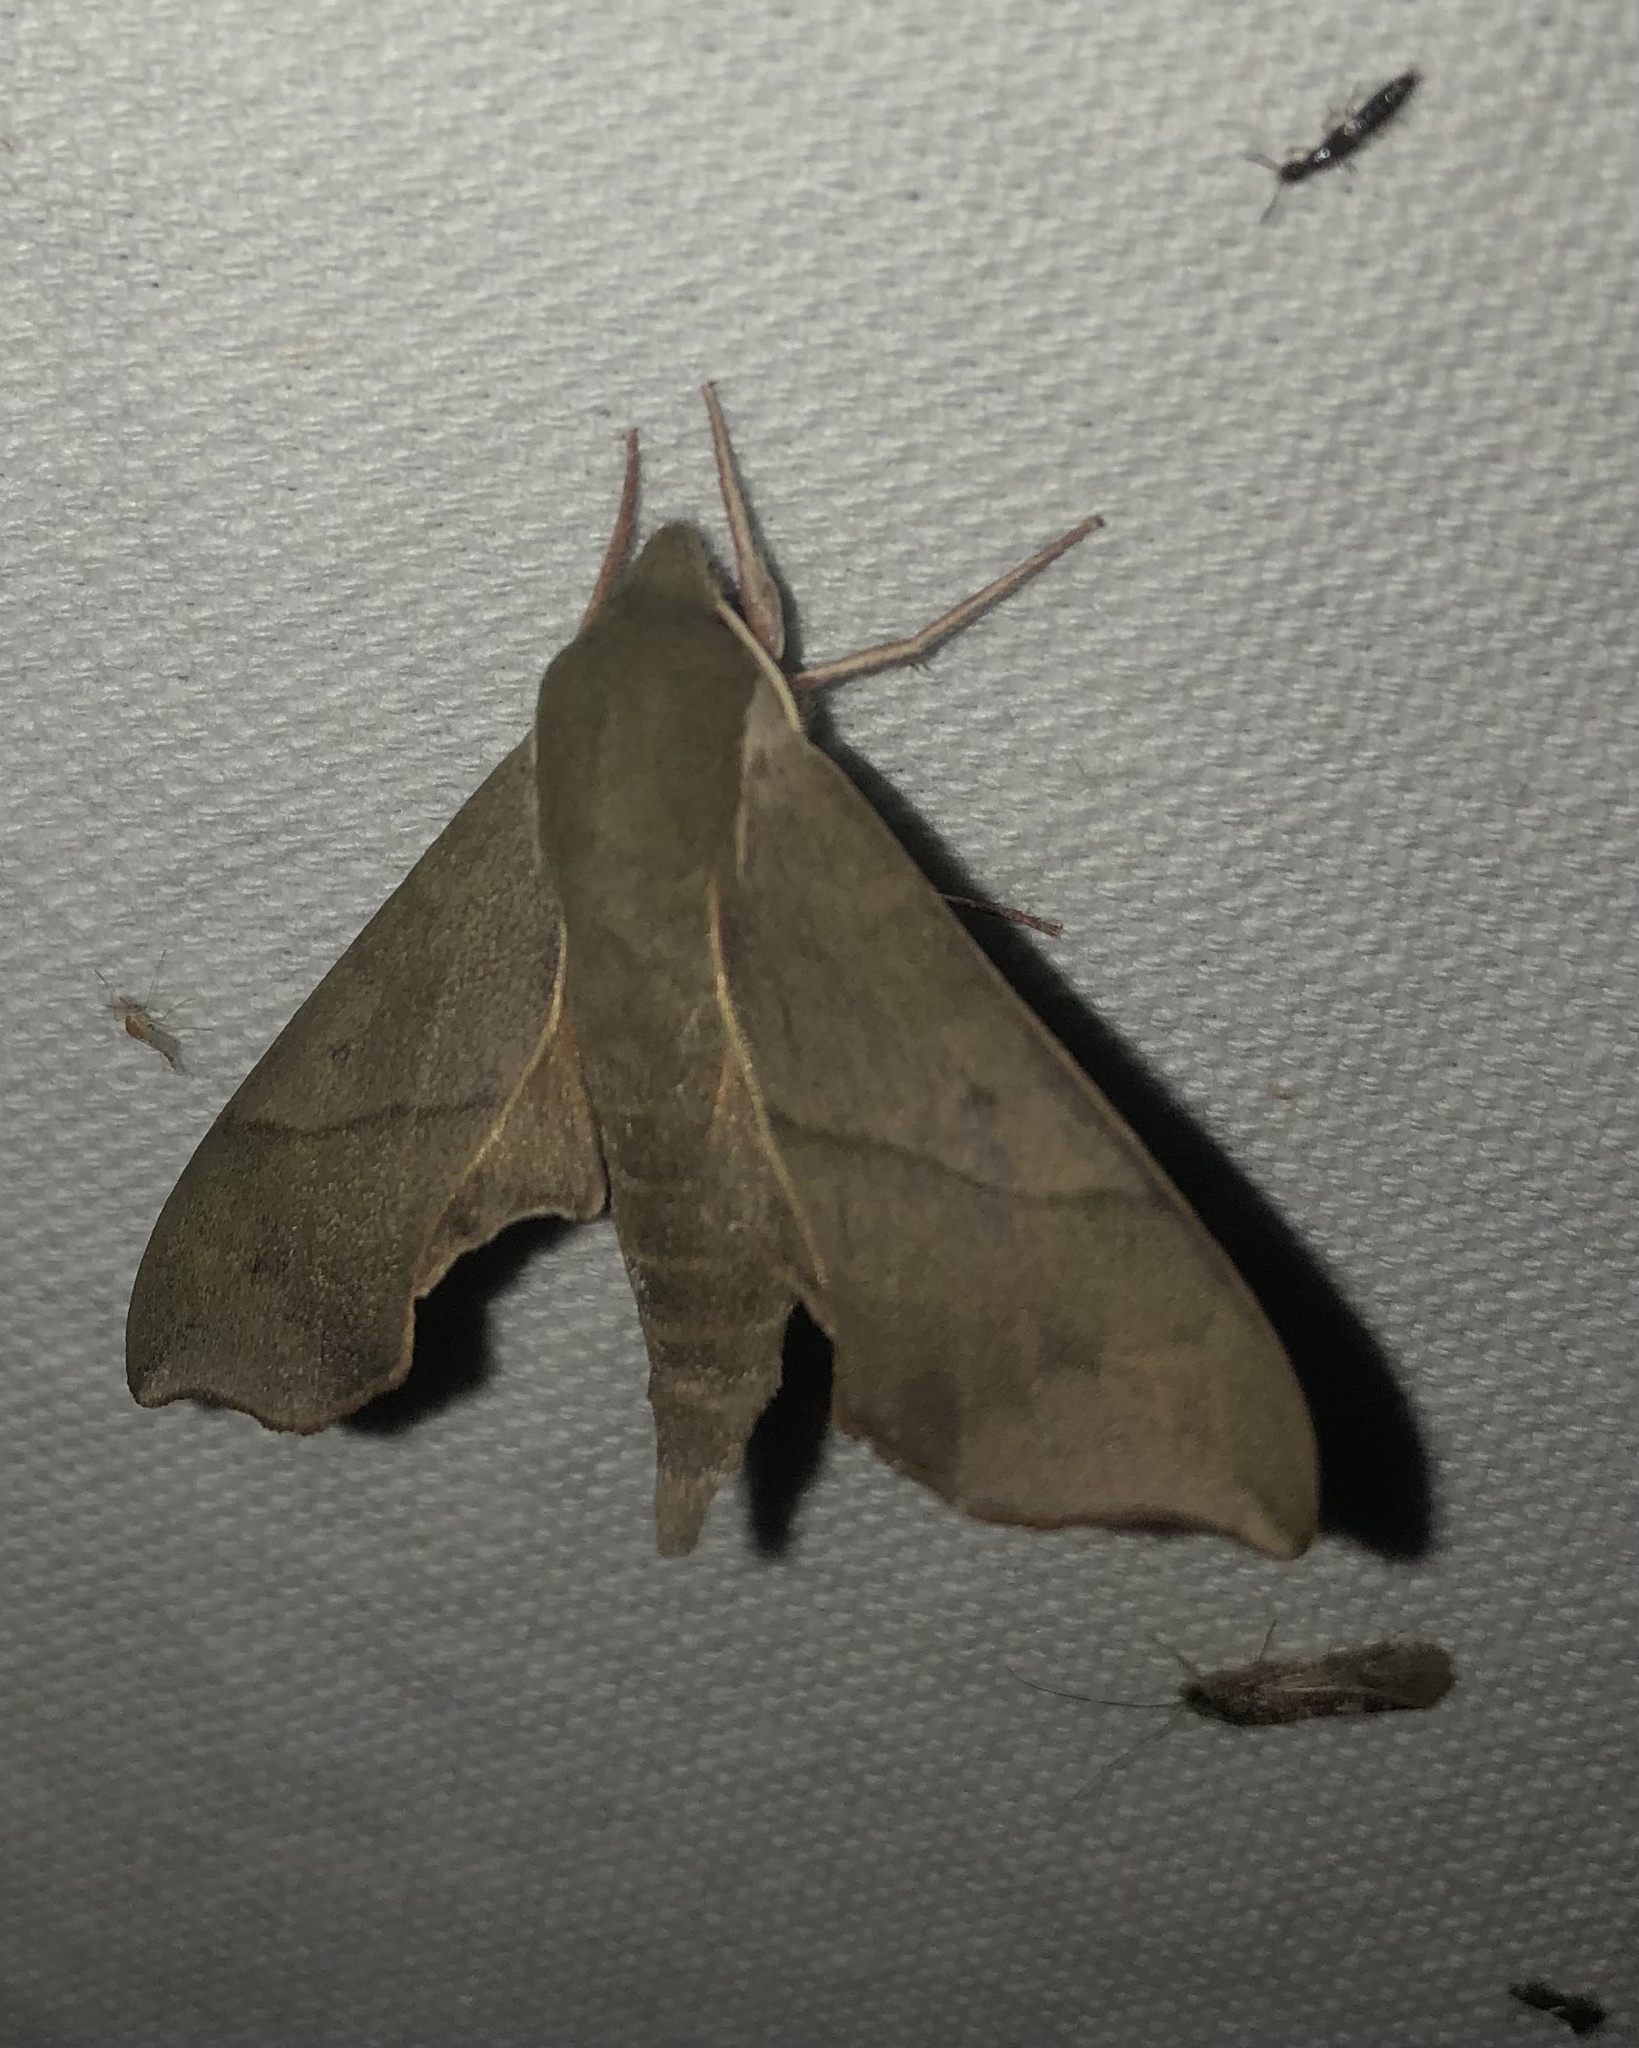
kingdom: Animalia
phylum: Arthropoda
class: Insecta
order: Lepidoptera
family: Sphingidae
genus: Darapsa
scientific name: Darapsa myron
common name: Hog sphinx
